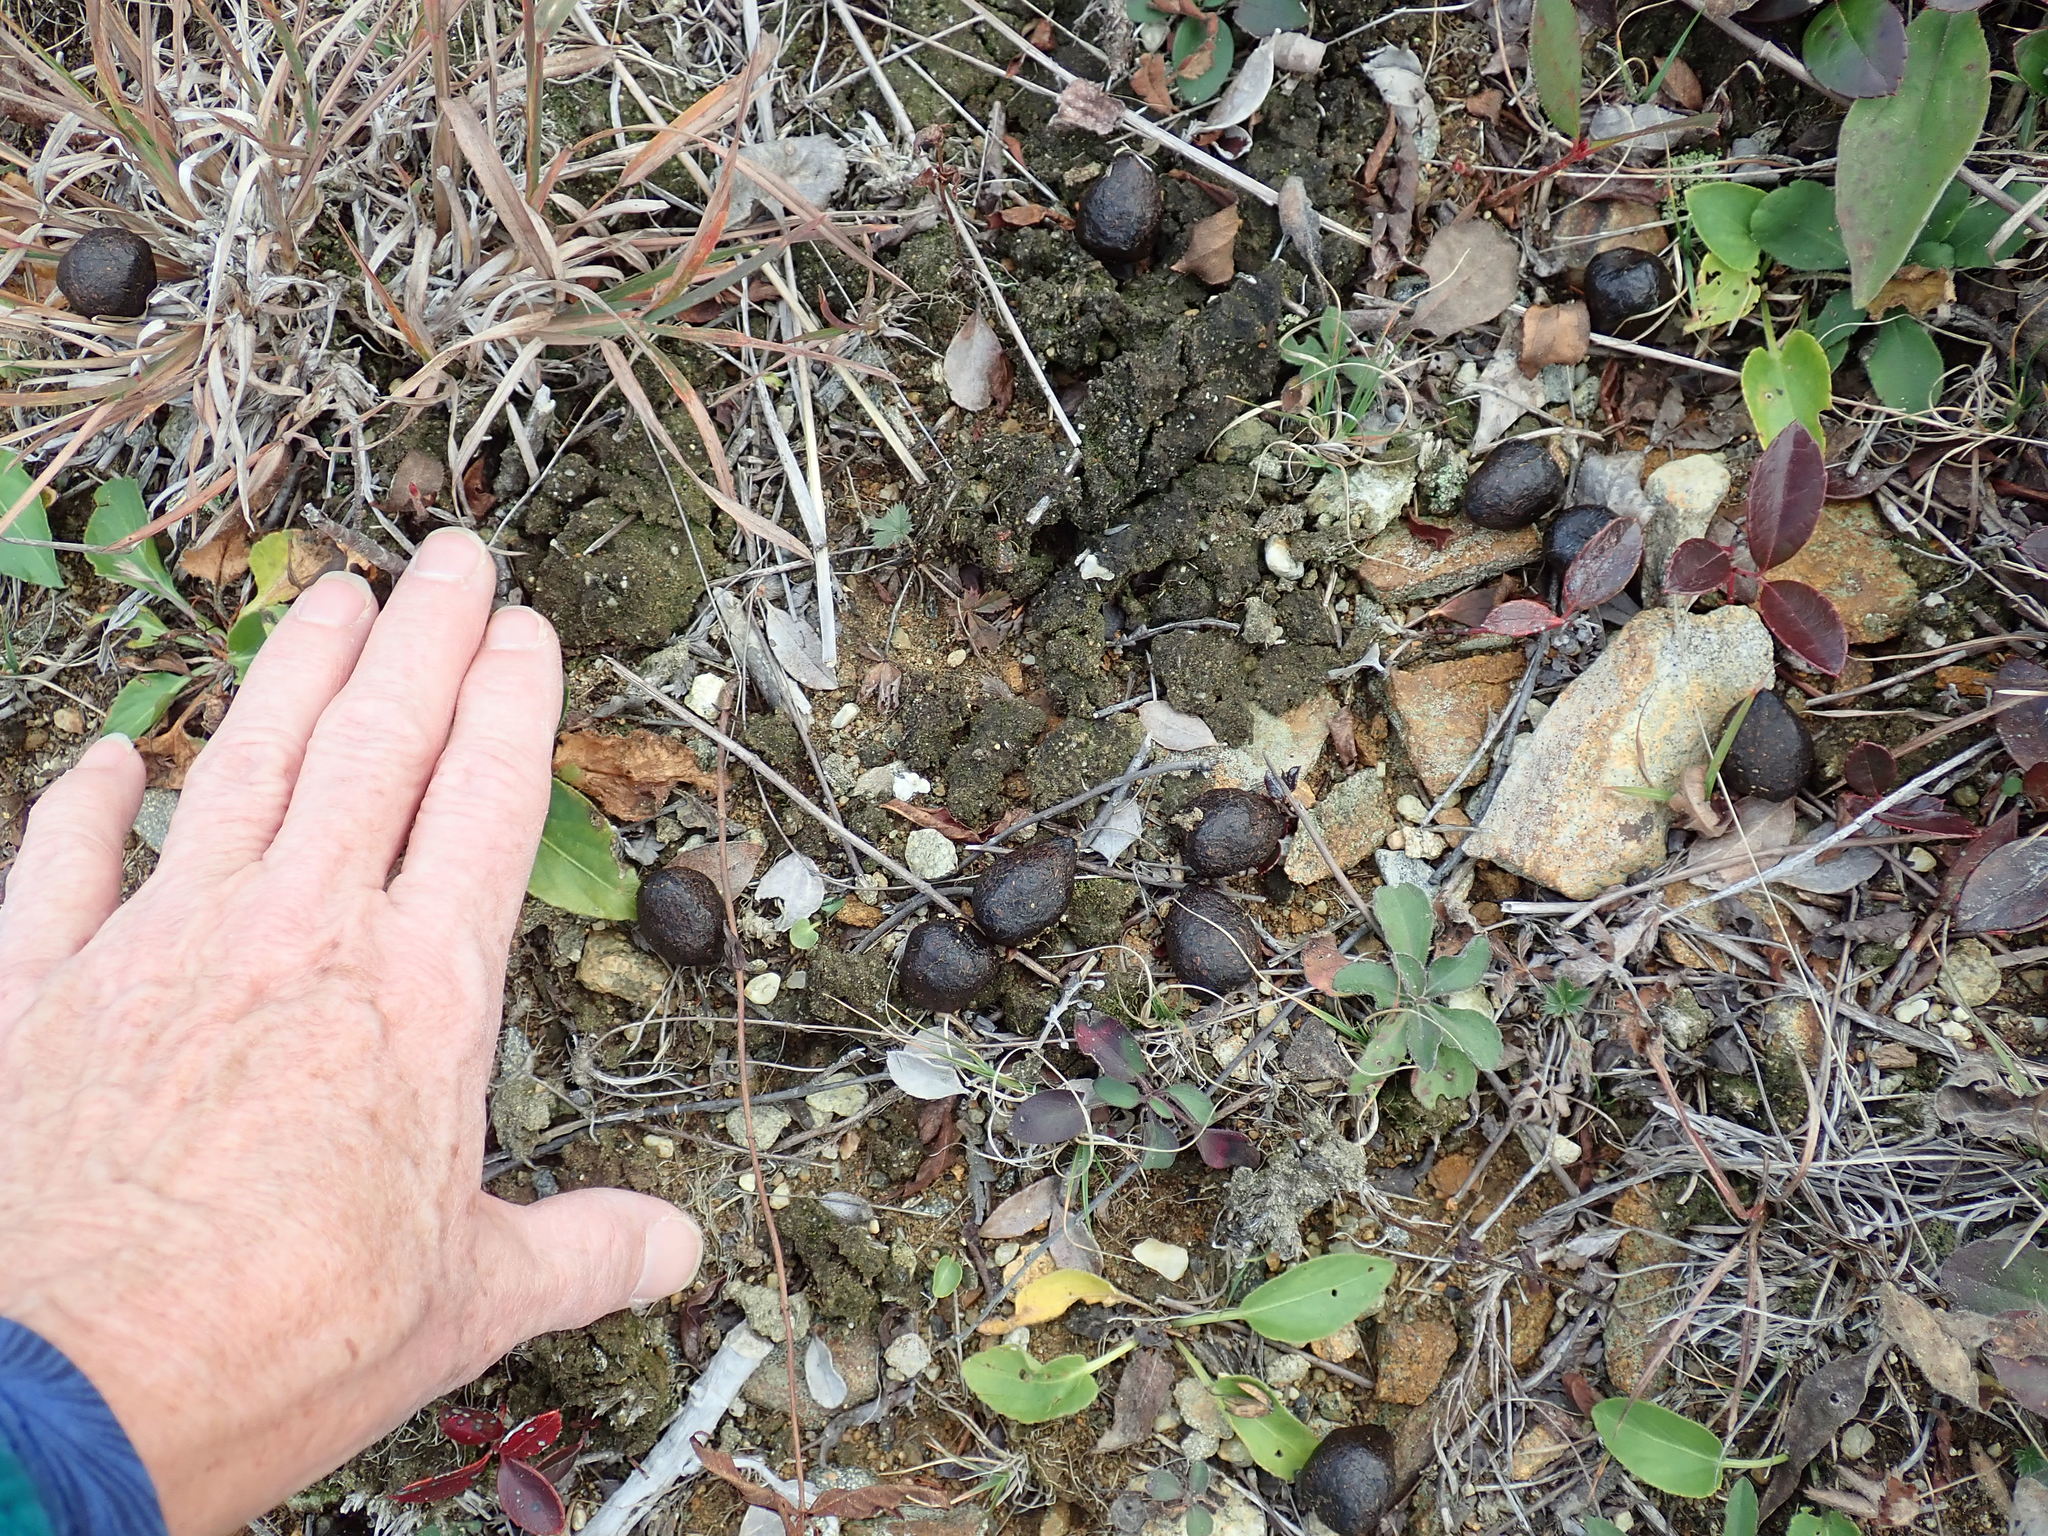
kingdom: Animalia
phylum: Chordata
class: Mammalia
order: Artiodactyla
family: Cervidae
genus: Alces
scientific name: Alces alces
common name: Moose
